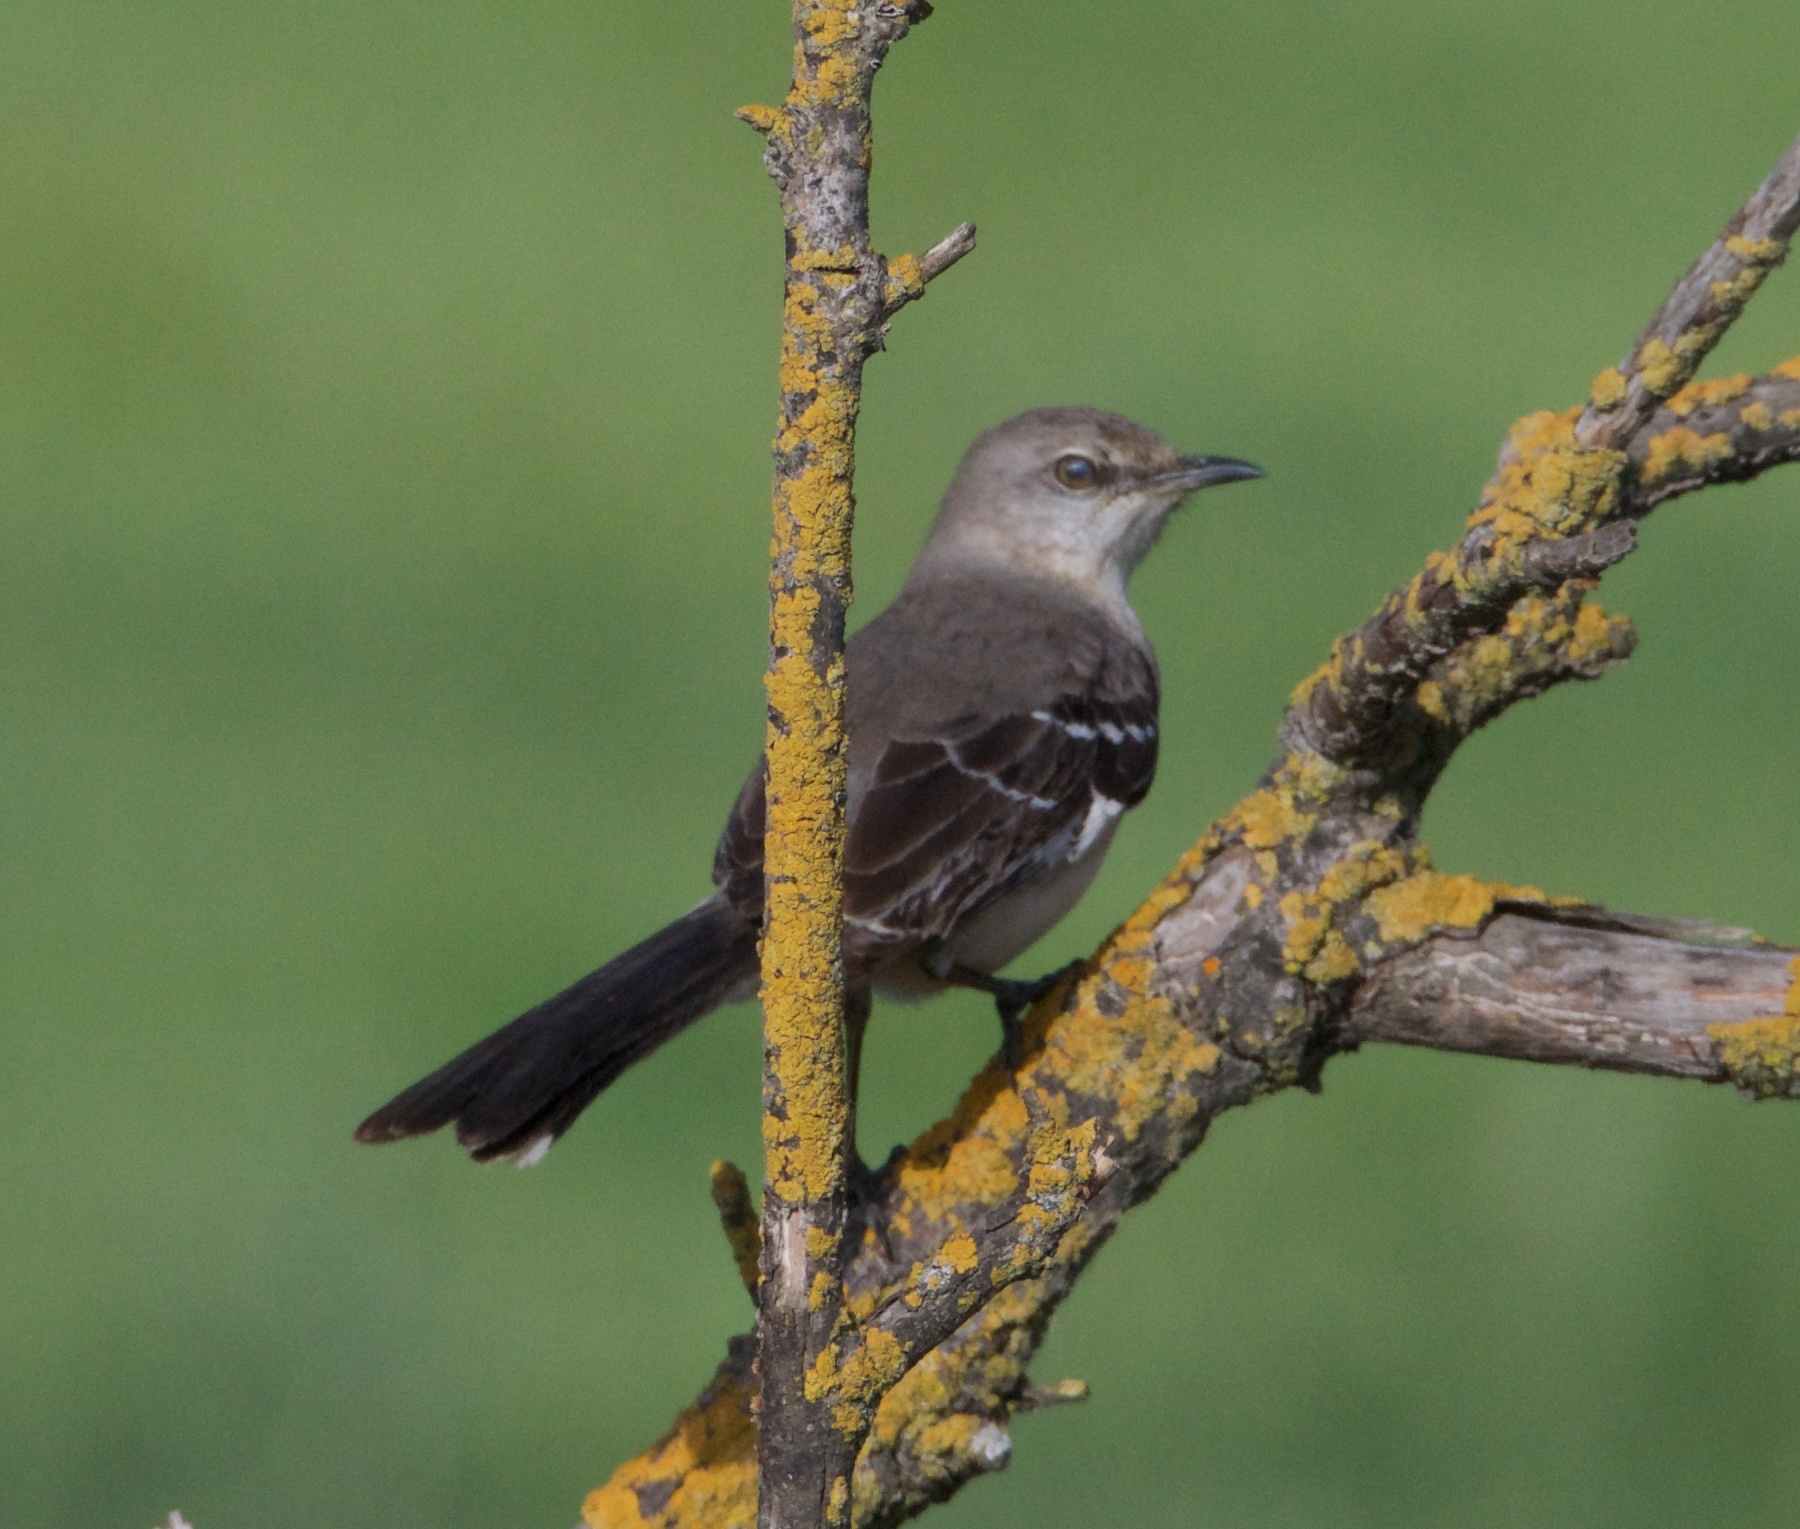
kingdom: Animalia
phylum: Chordata
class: Aves
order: Passeriformes
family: Mimidae
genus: Mimus
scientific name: Mimus polyglottos
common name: Northern mockingbird
